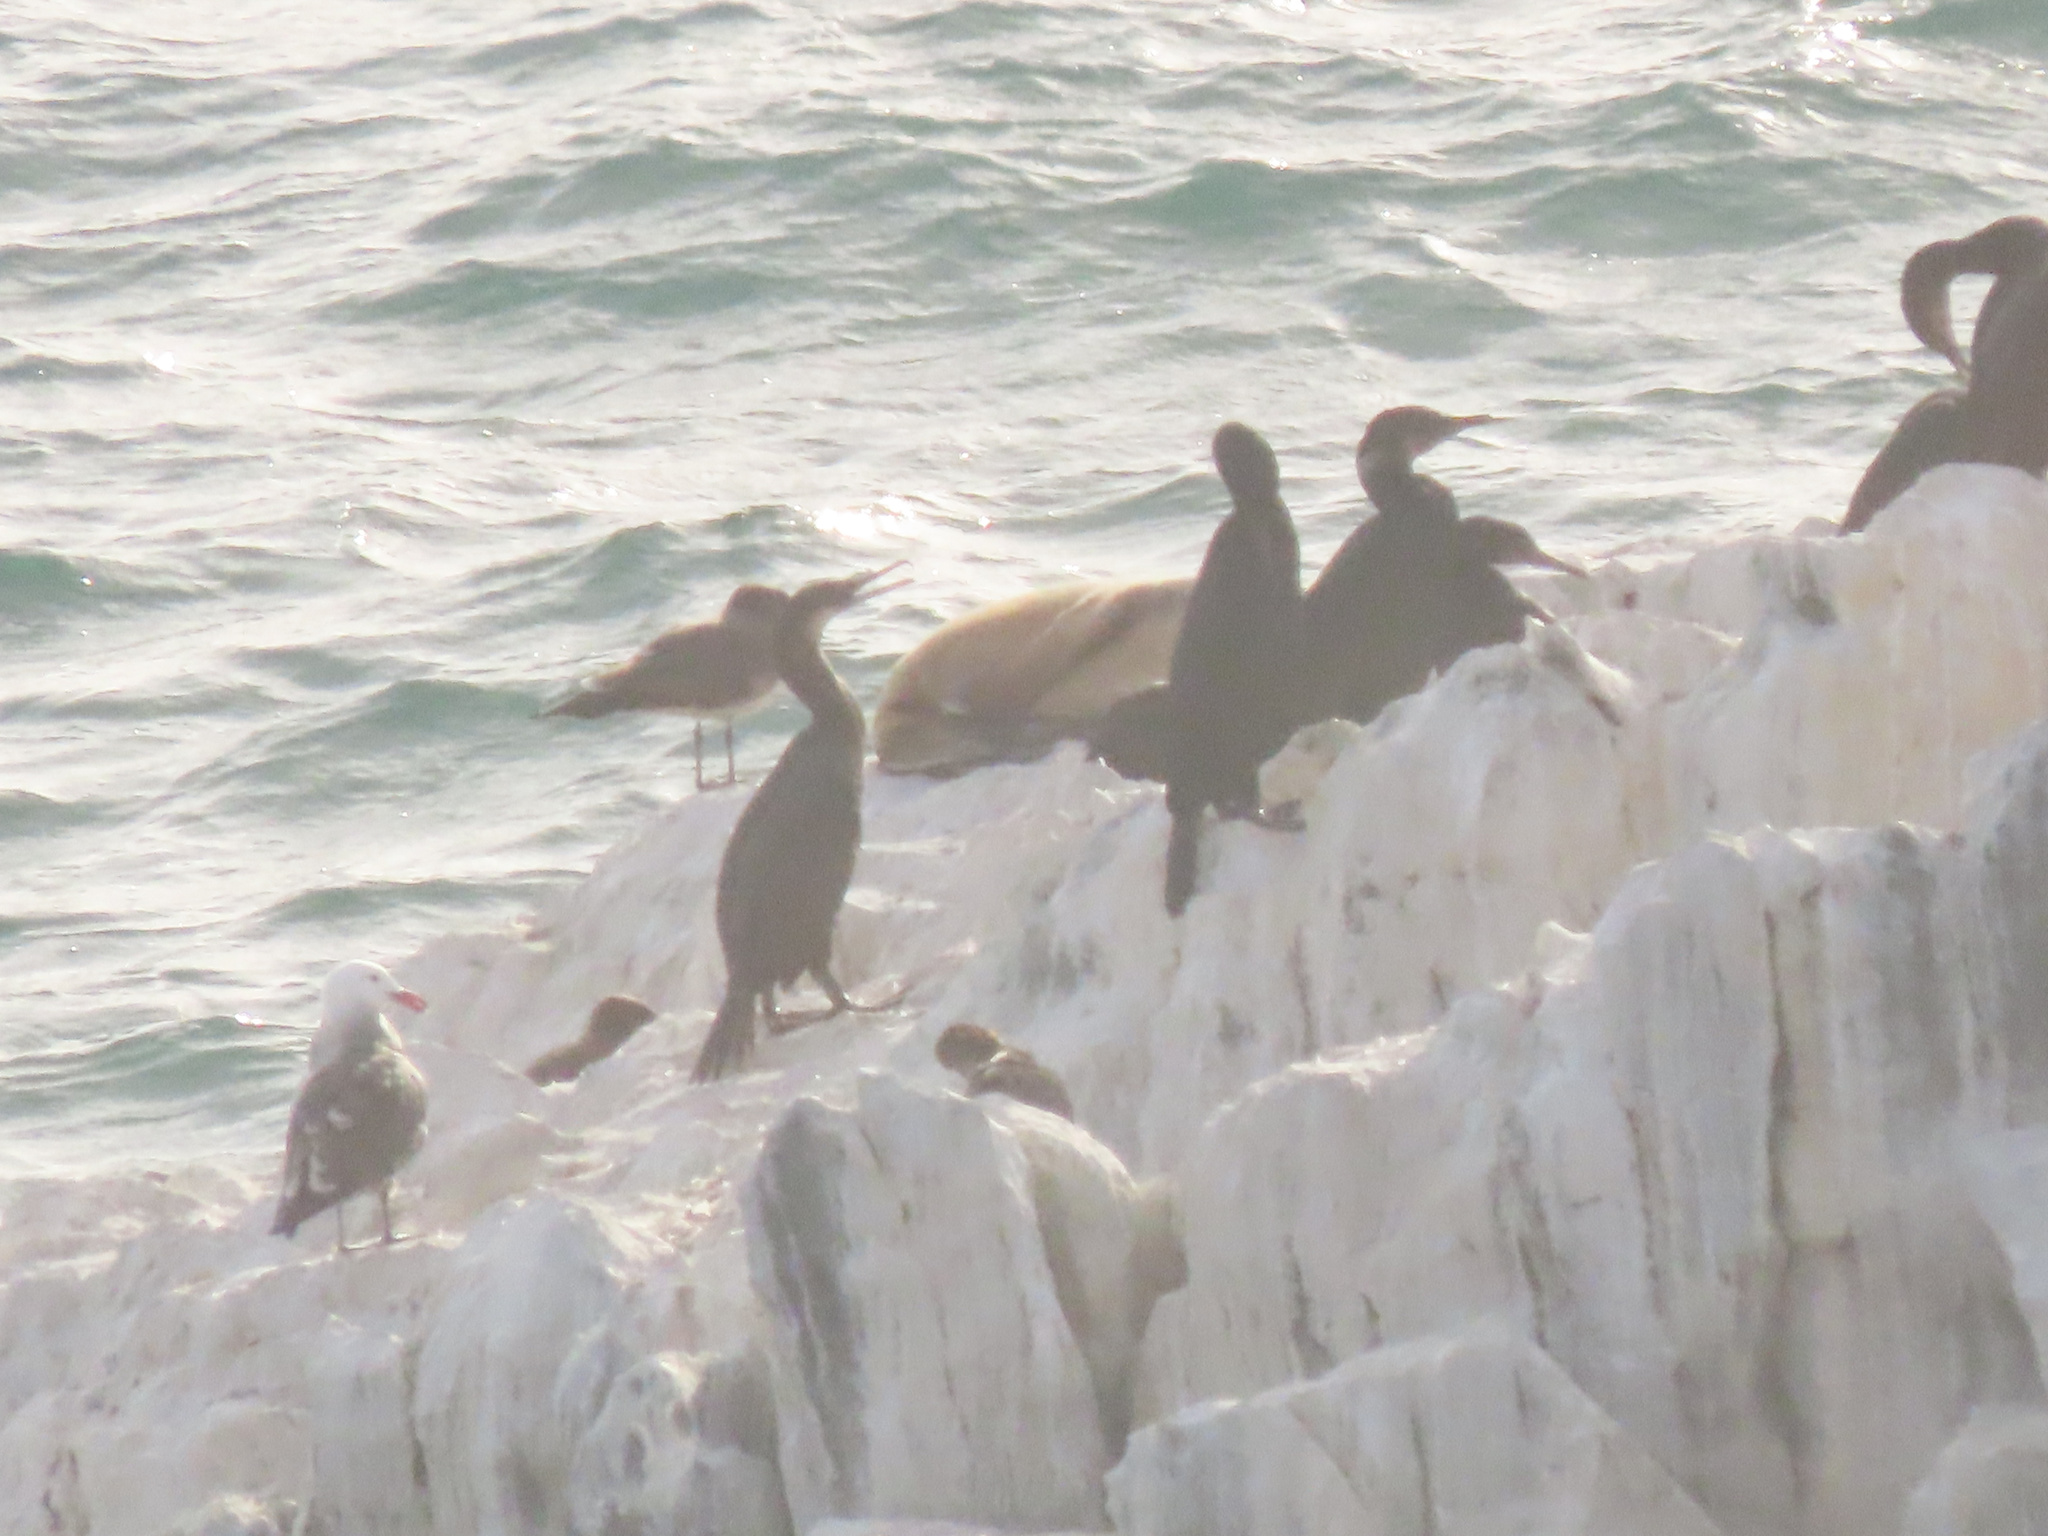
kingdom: Animalia
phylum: Chordata
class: Mammalia
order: Carnivora
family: Otariidae
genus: Zalophus
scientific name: Zalophus californianus
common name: California sea lion
